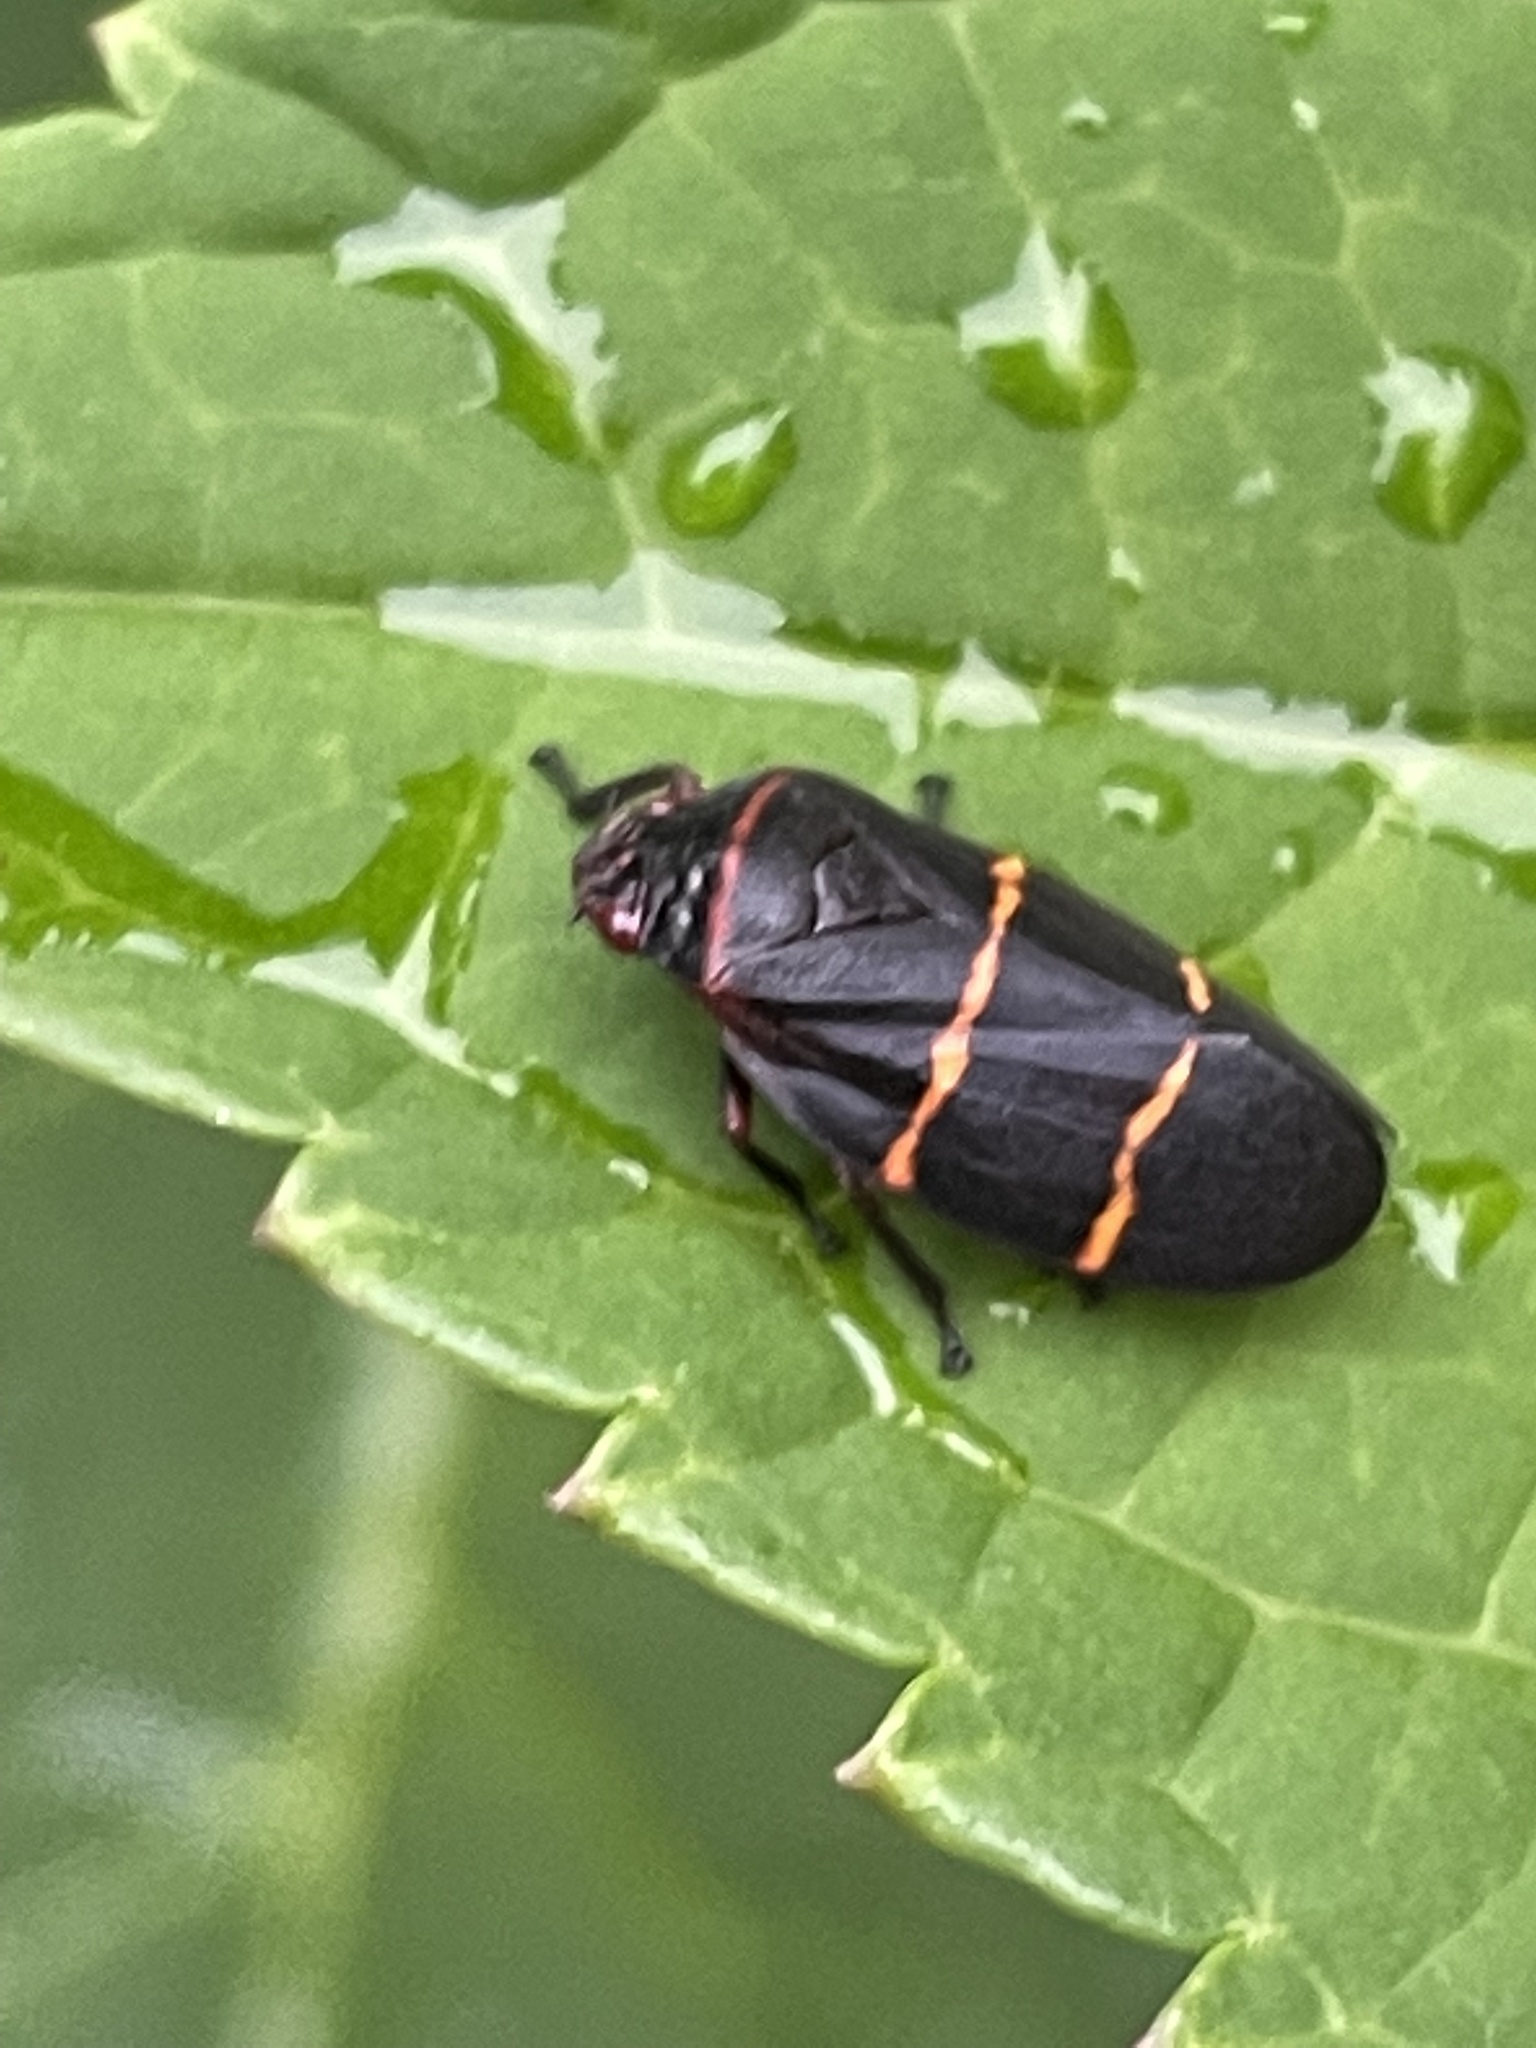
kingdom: Animalia
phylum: Arthropoda
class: Insecta
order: Hemiptera
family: Cercopidae
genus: Prosapia
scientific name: Prosapia bicincta
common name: Twolined spittlebug
